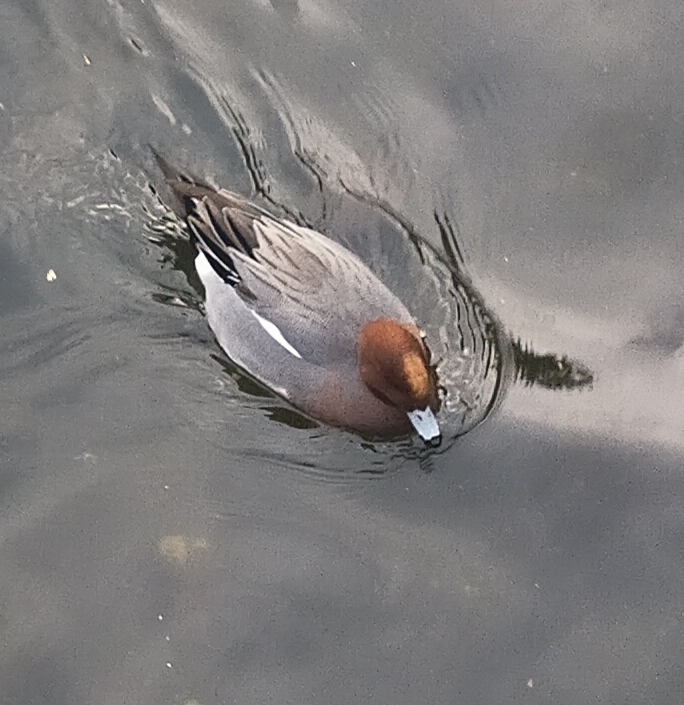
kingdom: Animalia
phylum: Chordata
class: Aves
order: Anseriformes
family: Anatidae
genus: Mareca
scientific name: Mareca penelope
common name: Eurasian wigeon
